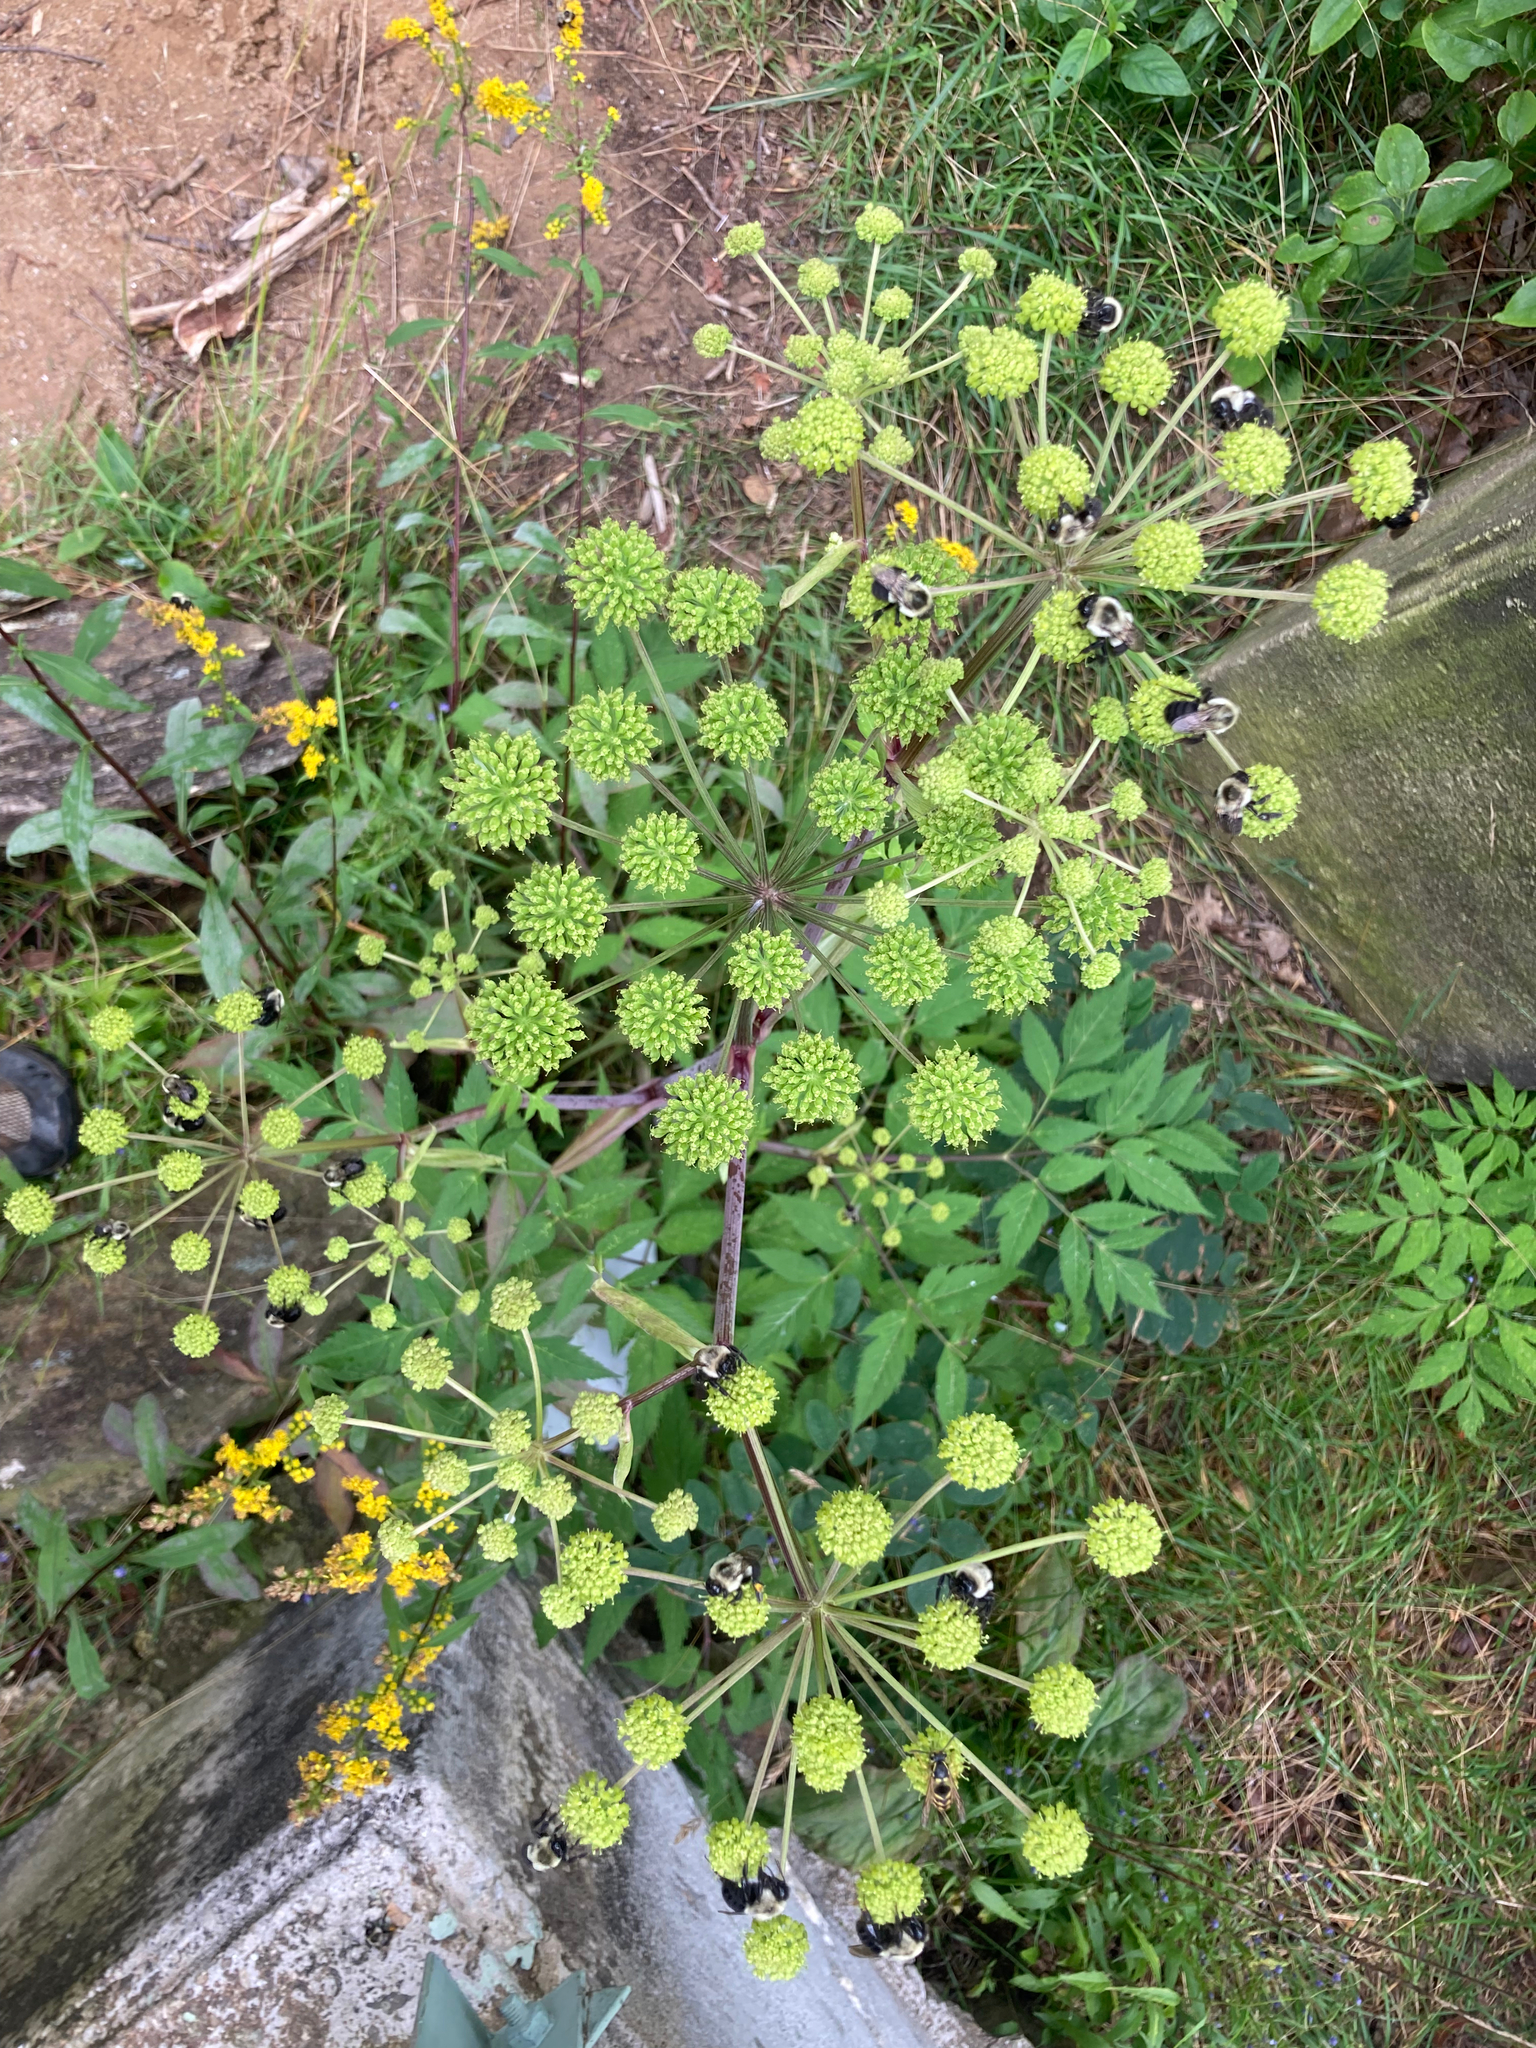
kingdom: Animalia
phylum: Arthropoda
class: Insecta
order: Hymenoptera
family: Apidae
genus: Bombus
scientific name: Bombus impatiens
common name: Common eastern bumble bee
